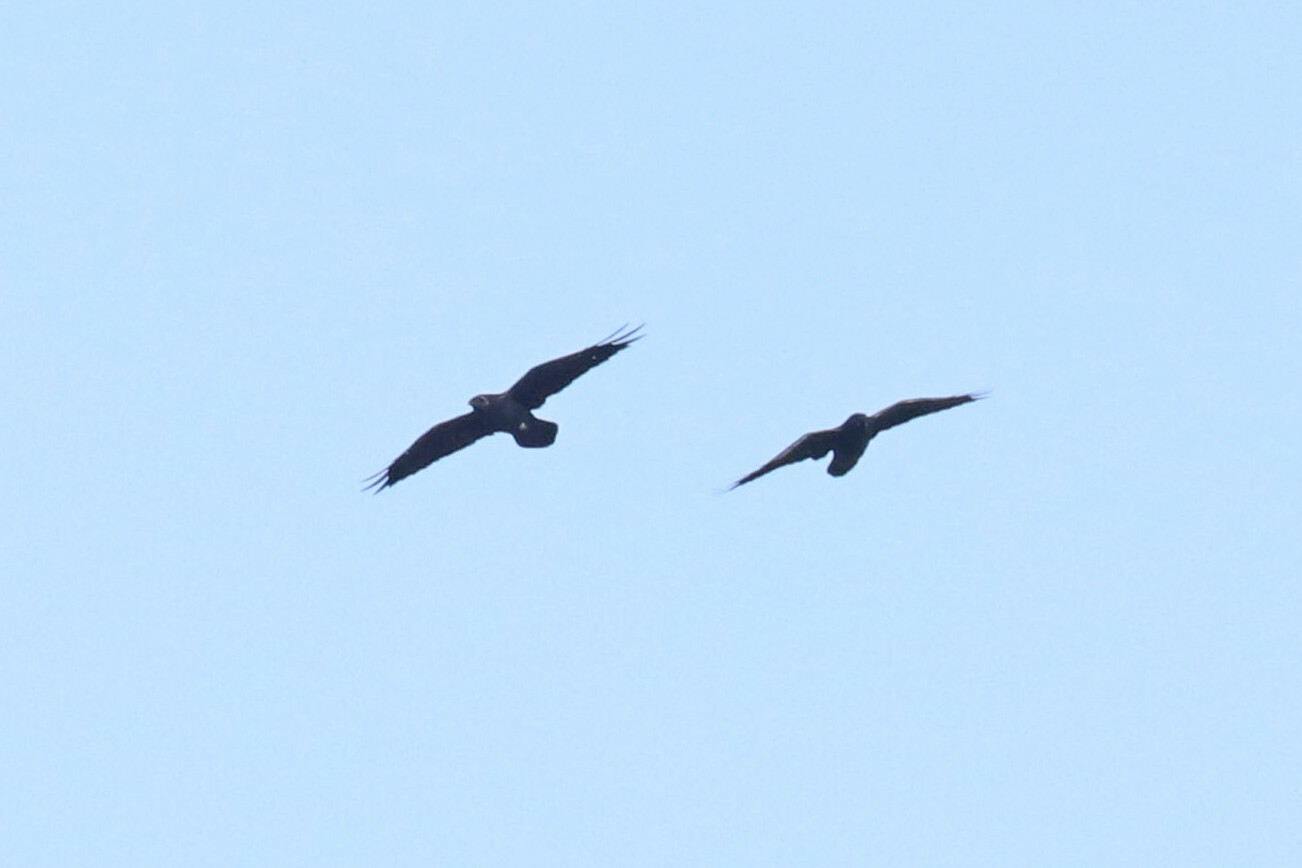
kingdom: Animalia
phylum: Chordata
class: Aves
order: Passeriformes
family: Corvidae
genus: Corvus
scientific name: Corvus corax
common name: Common raven
